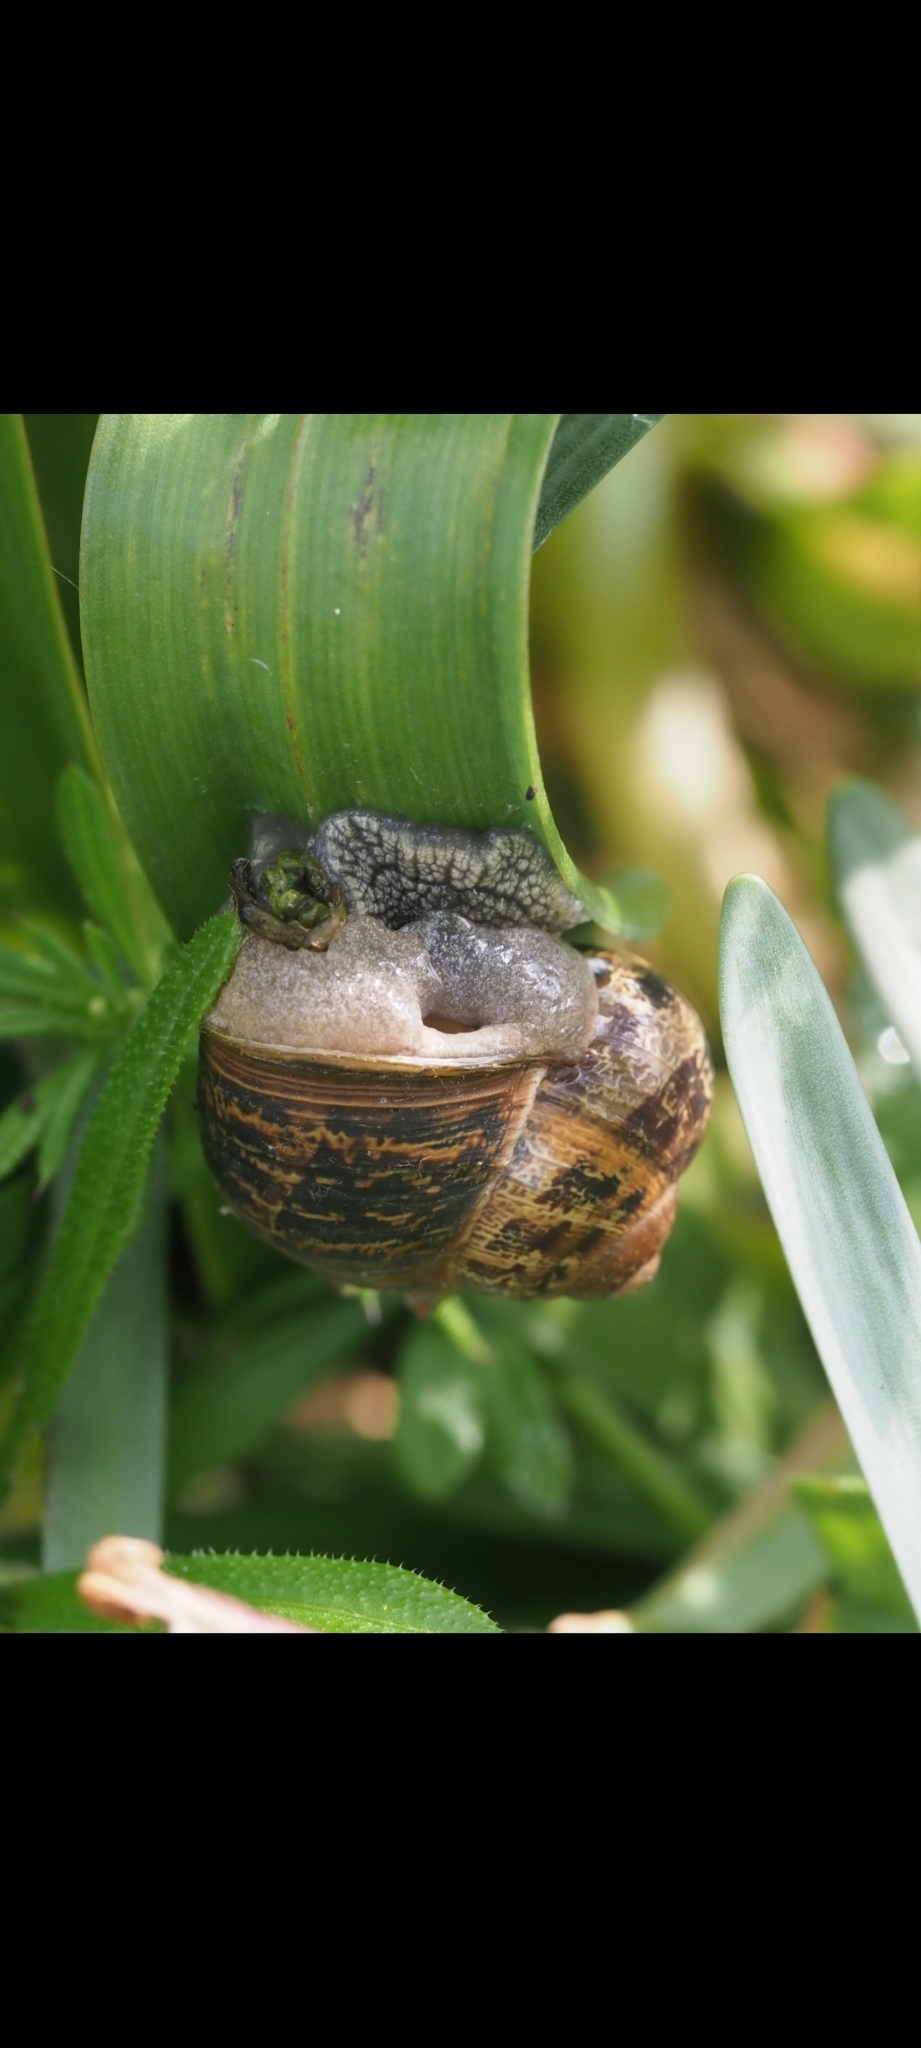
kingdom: Animalia
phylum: Mollusca
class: Gastropoda
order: Stylommatophora
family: Helicidae
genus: Cornu
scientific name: Cornu aspersum
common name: Brown garden snail
